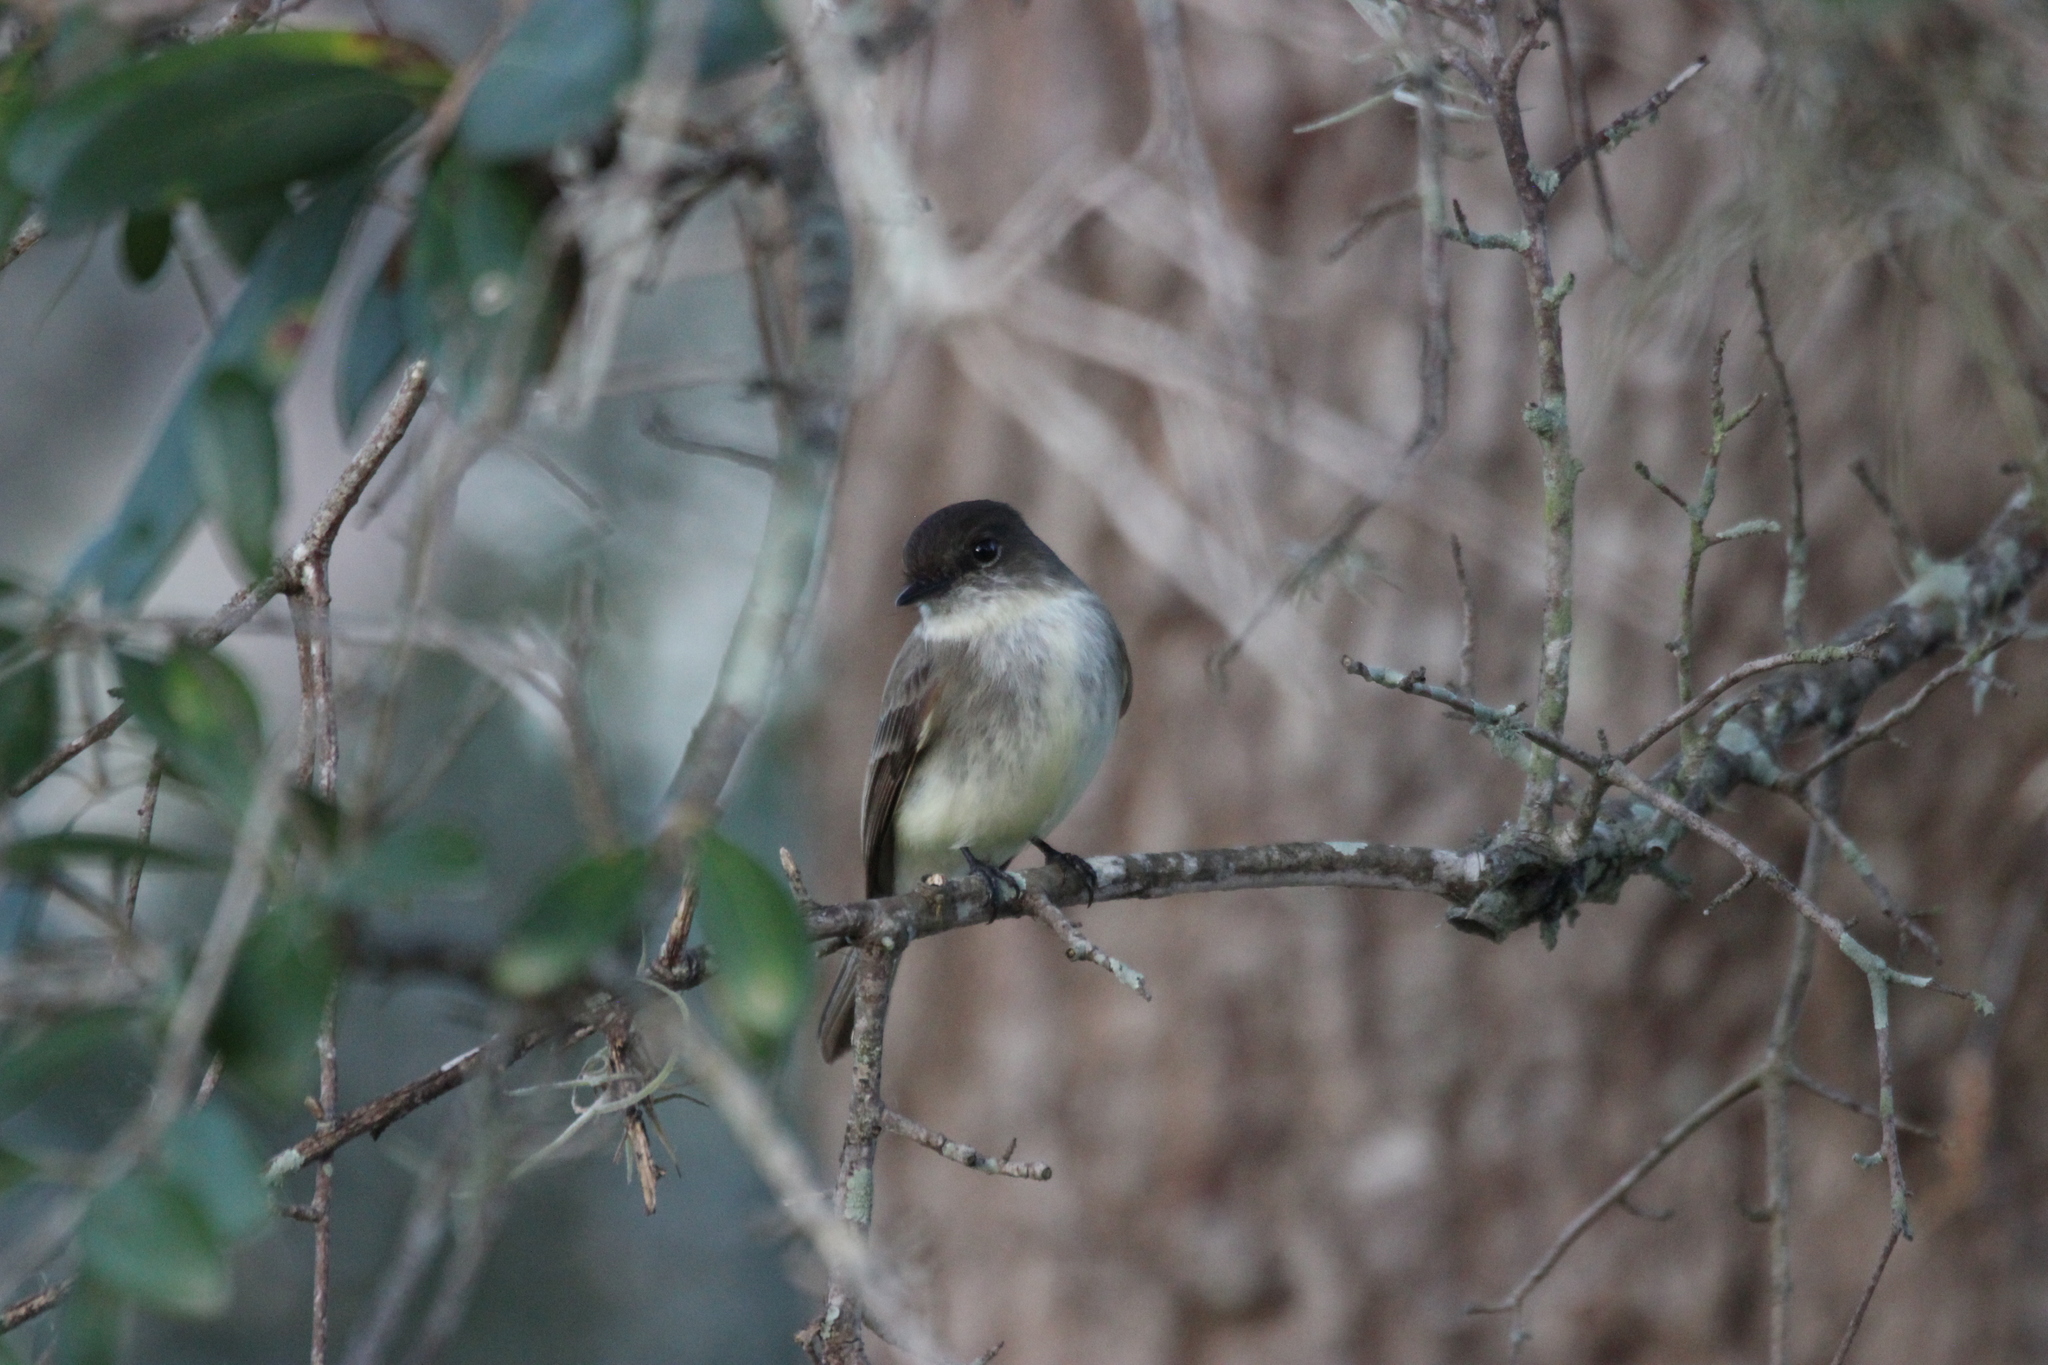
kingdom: Animalia
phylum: Chordata
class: Aves
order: Passeriformes
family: Tyrannidae
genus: Sayornis
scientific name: Sayornis phoebe
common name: Eastern phoebe
